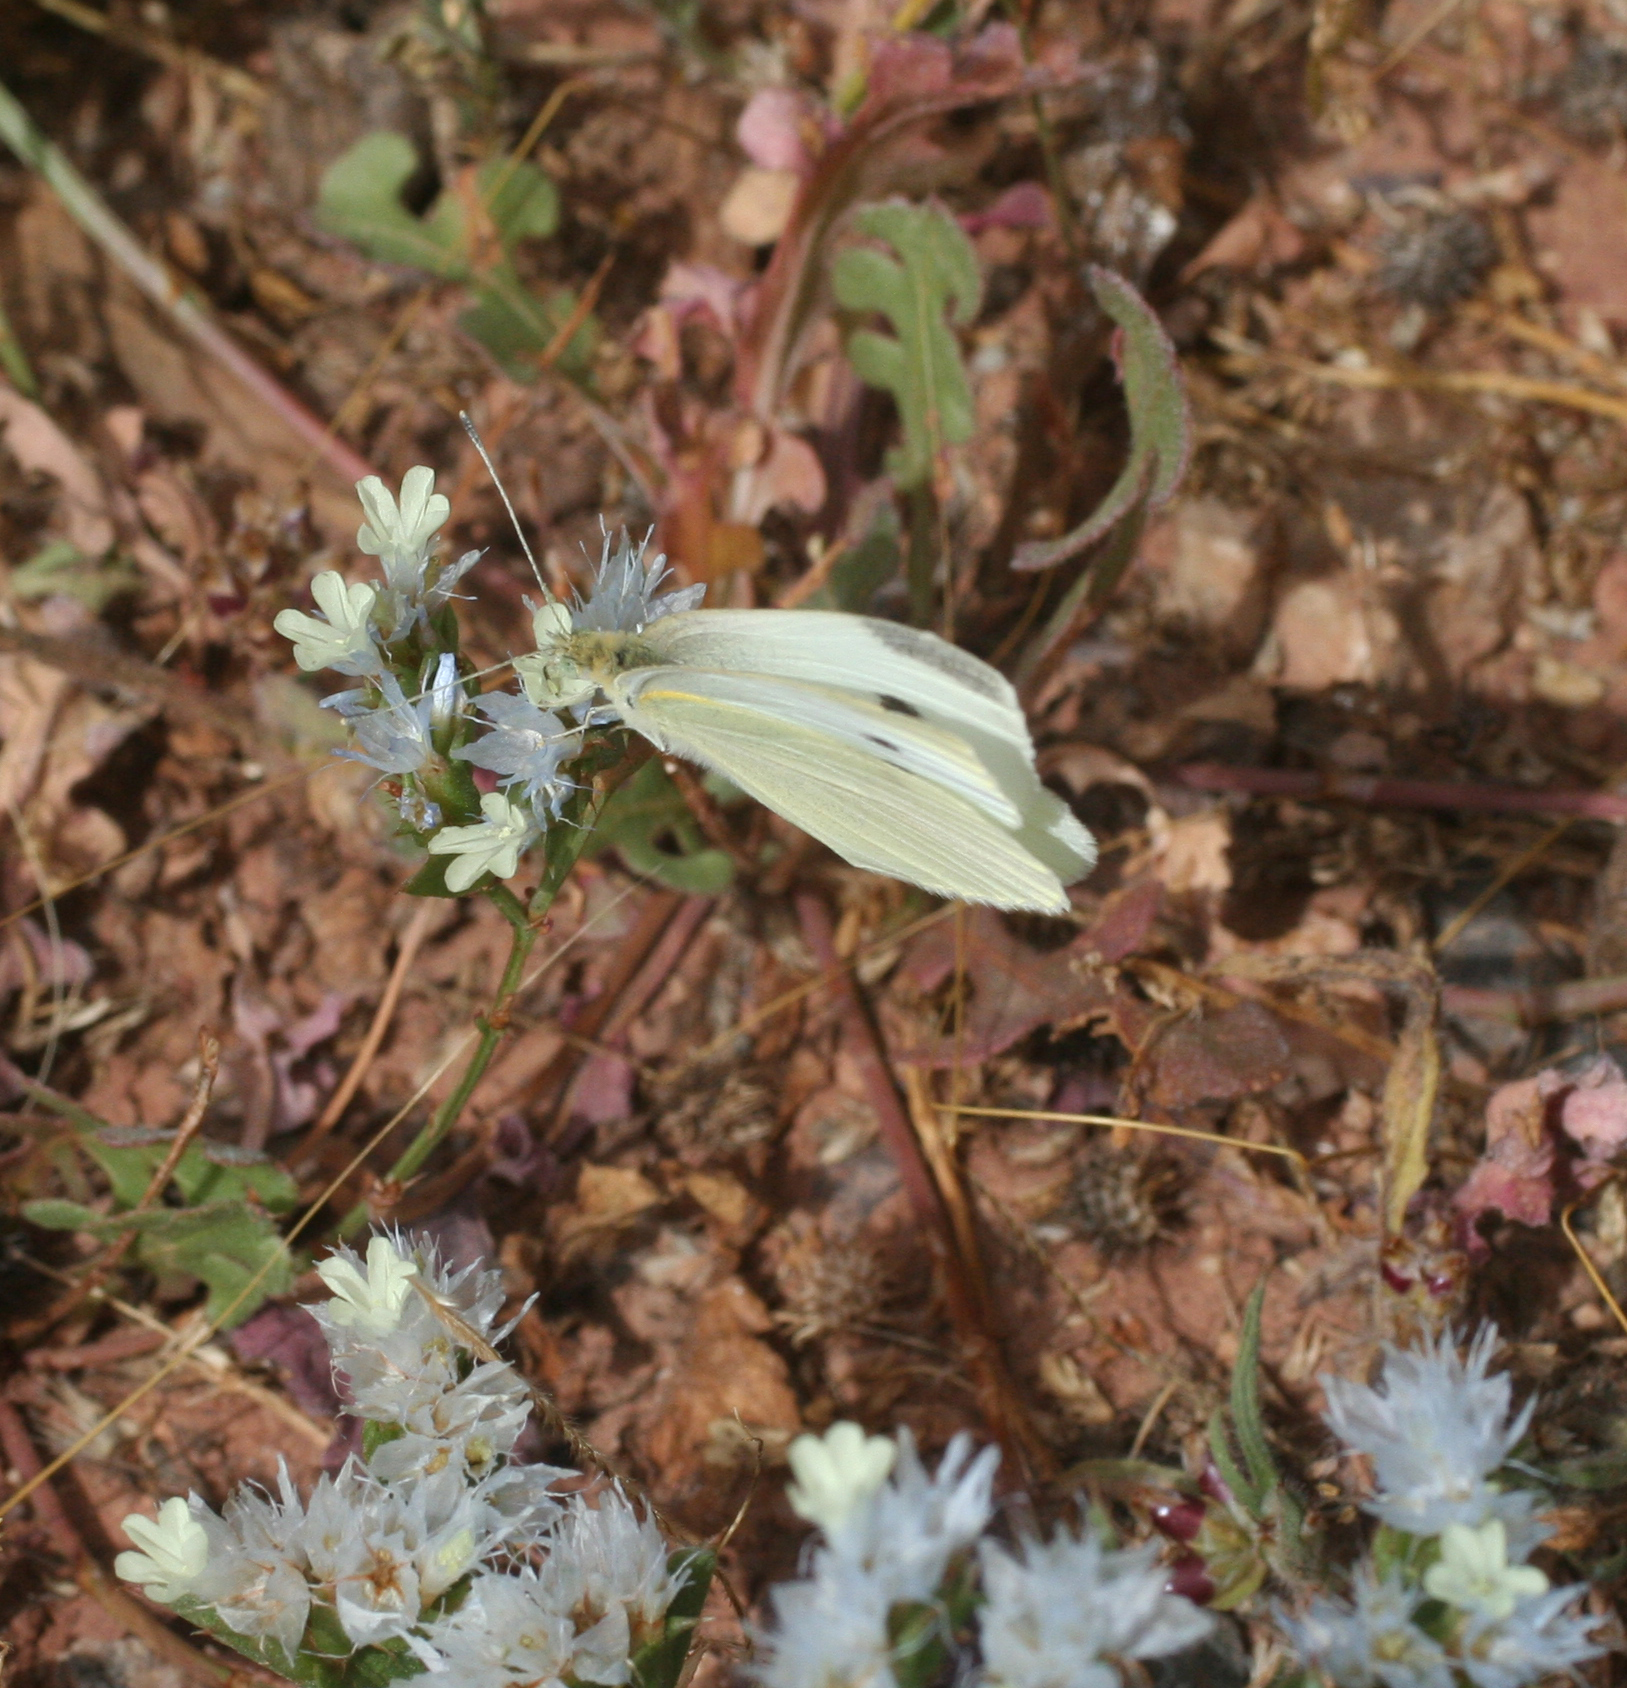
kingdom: Animalia
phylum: Arthropoda
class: Insecta
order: Lepidoptera
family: Pieridae
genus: Pieris
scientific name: Pieris rapae
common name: Small white
